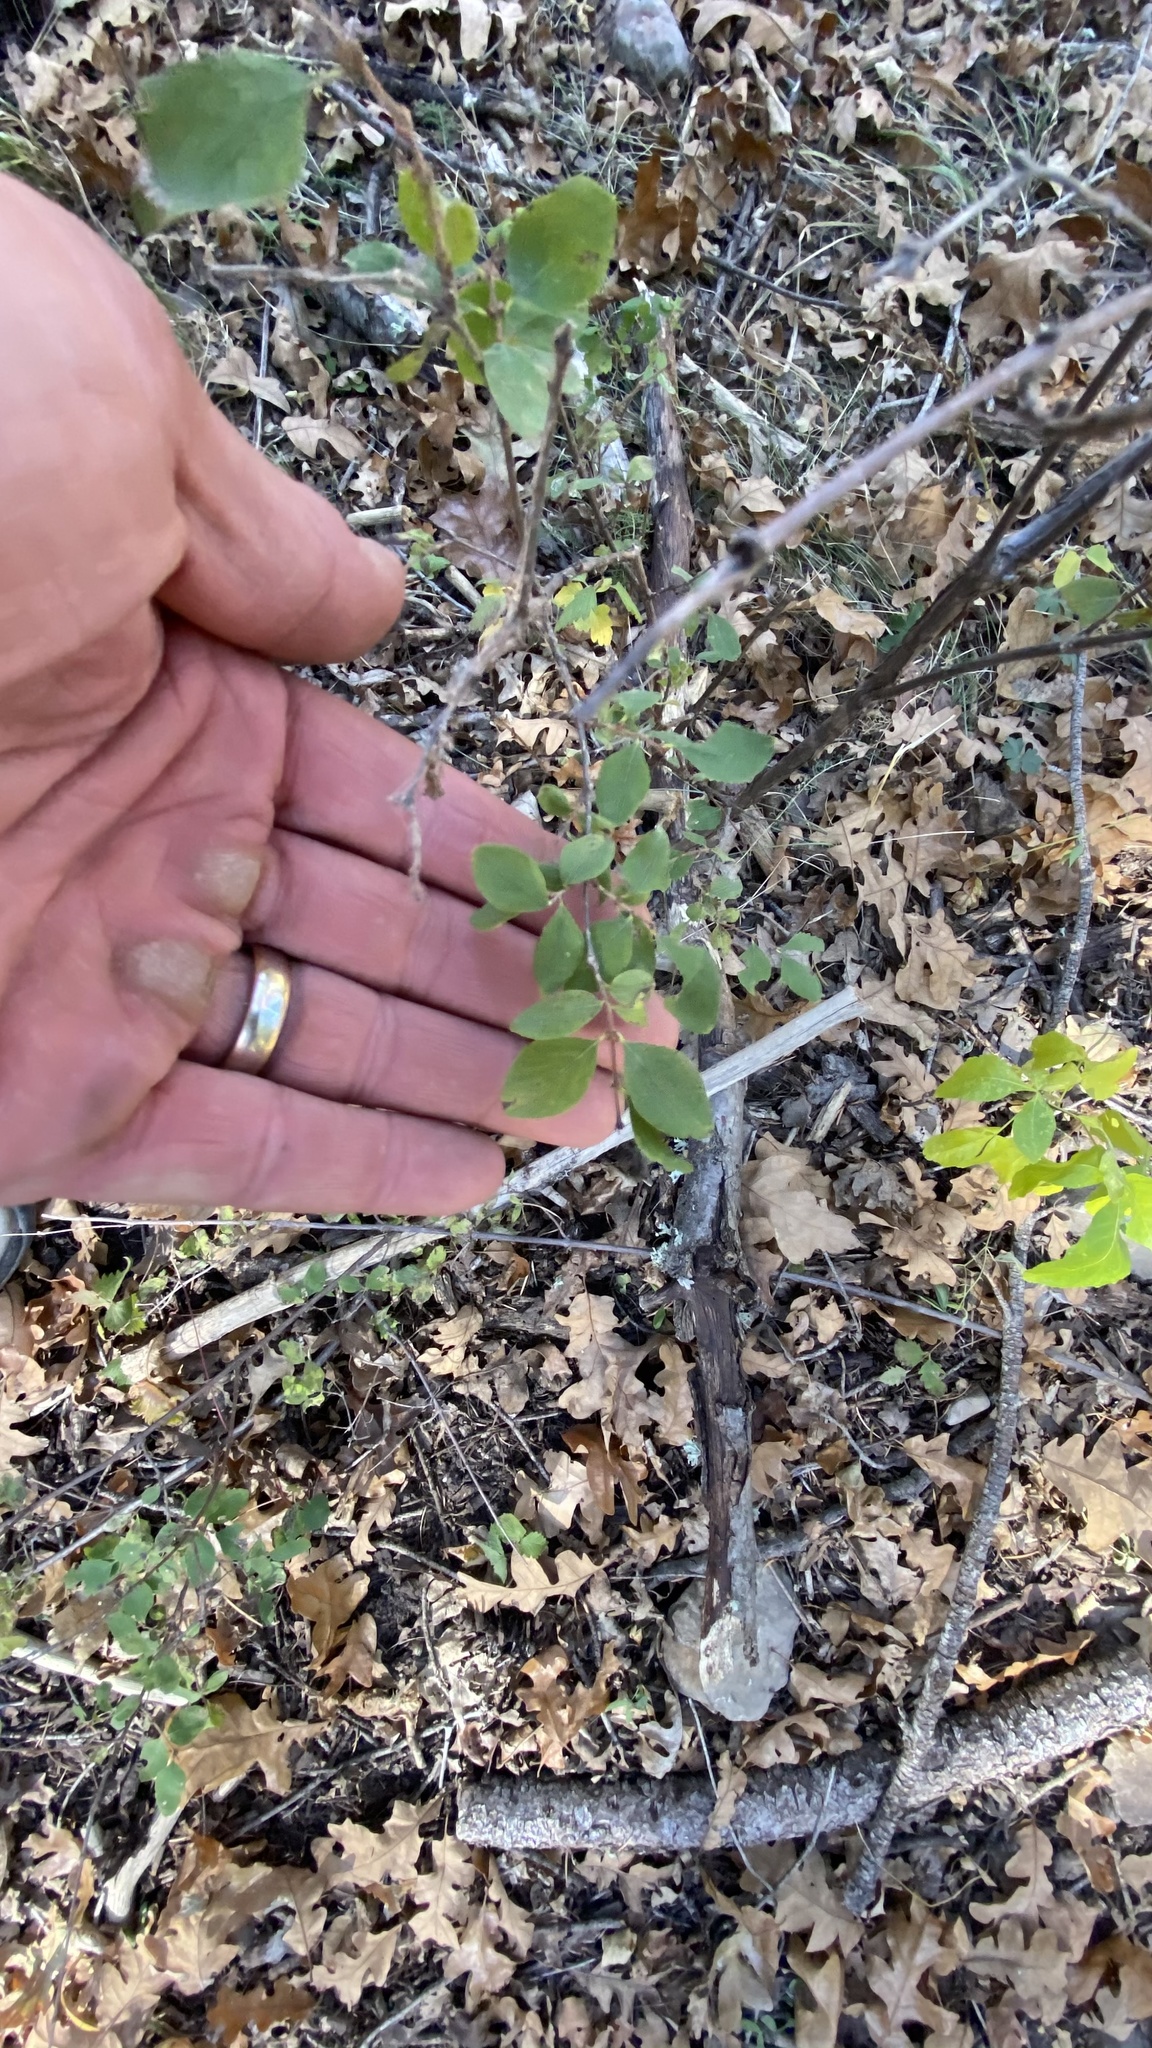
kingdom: Plantae
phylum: Tracheophyta
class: Magnoliopsida
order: Fabales
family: Fabaceae
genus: Robinia
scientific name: Robinia neomexicana
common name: New mexico locust
